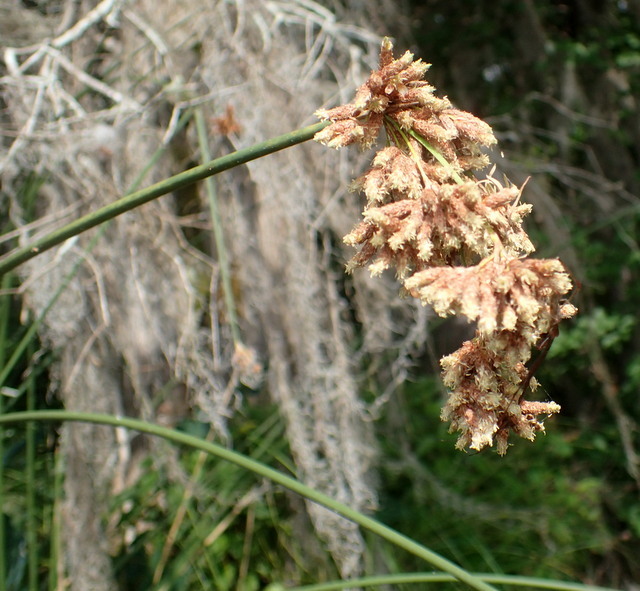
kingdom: Plantae
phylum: Tracheophyta
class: Liliopsida
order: Poales
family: Cyperaceae
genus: Schoenoplectus
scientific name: Schoenoplectus californicus
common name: California bulrush
